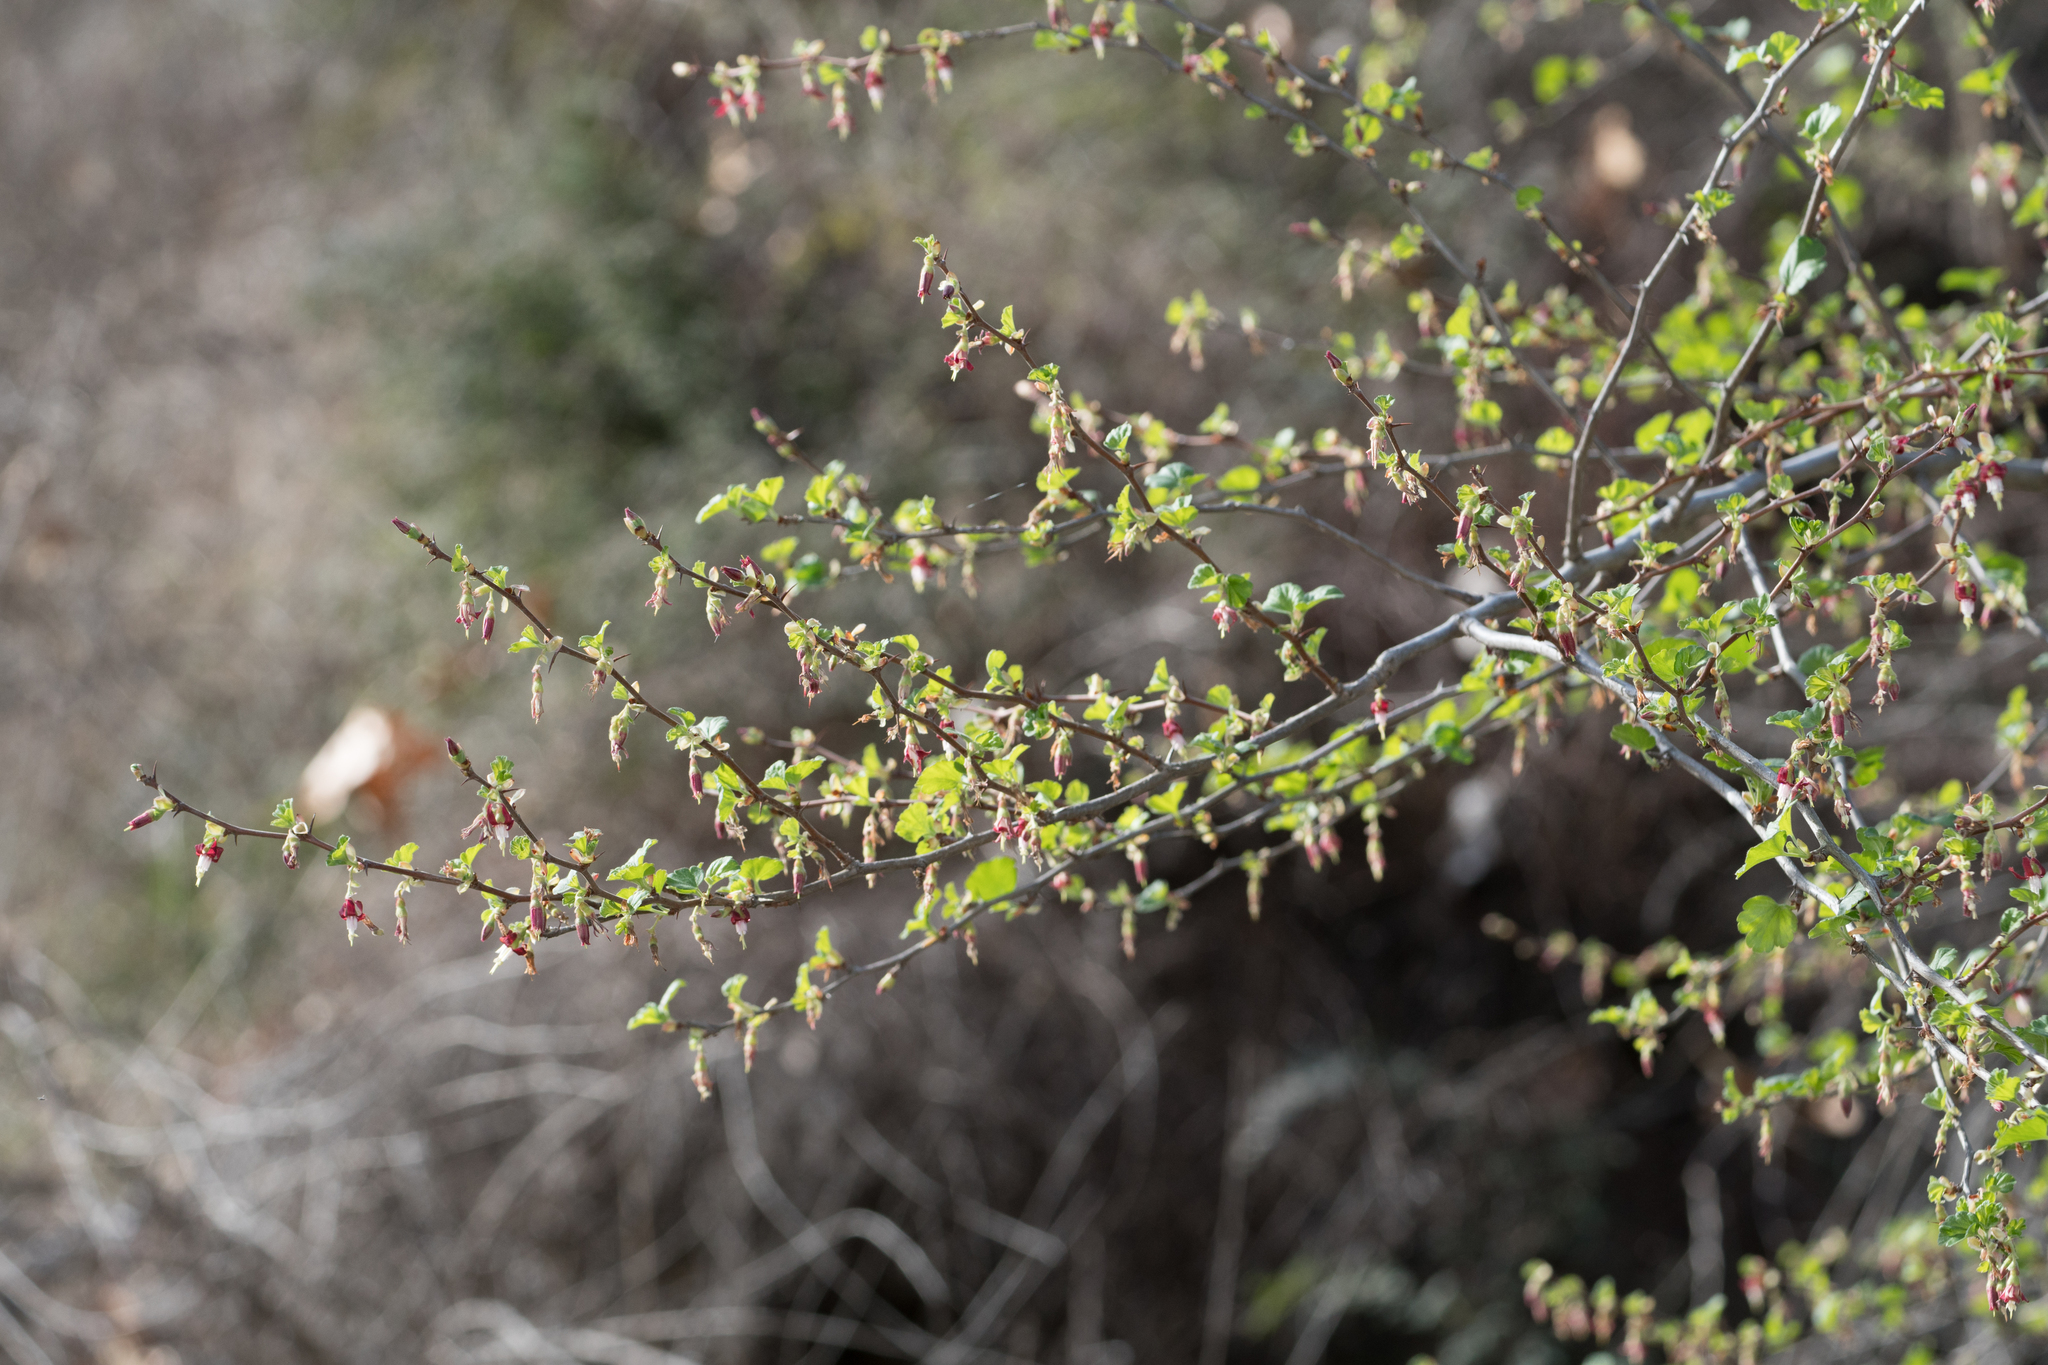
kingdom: Plantae
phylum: Tracheophyta
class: Magnoliopsida
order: Saxifragales
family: Grossulariaceae
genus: Ribes
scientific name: Ribes californicum
